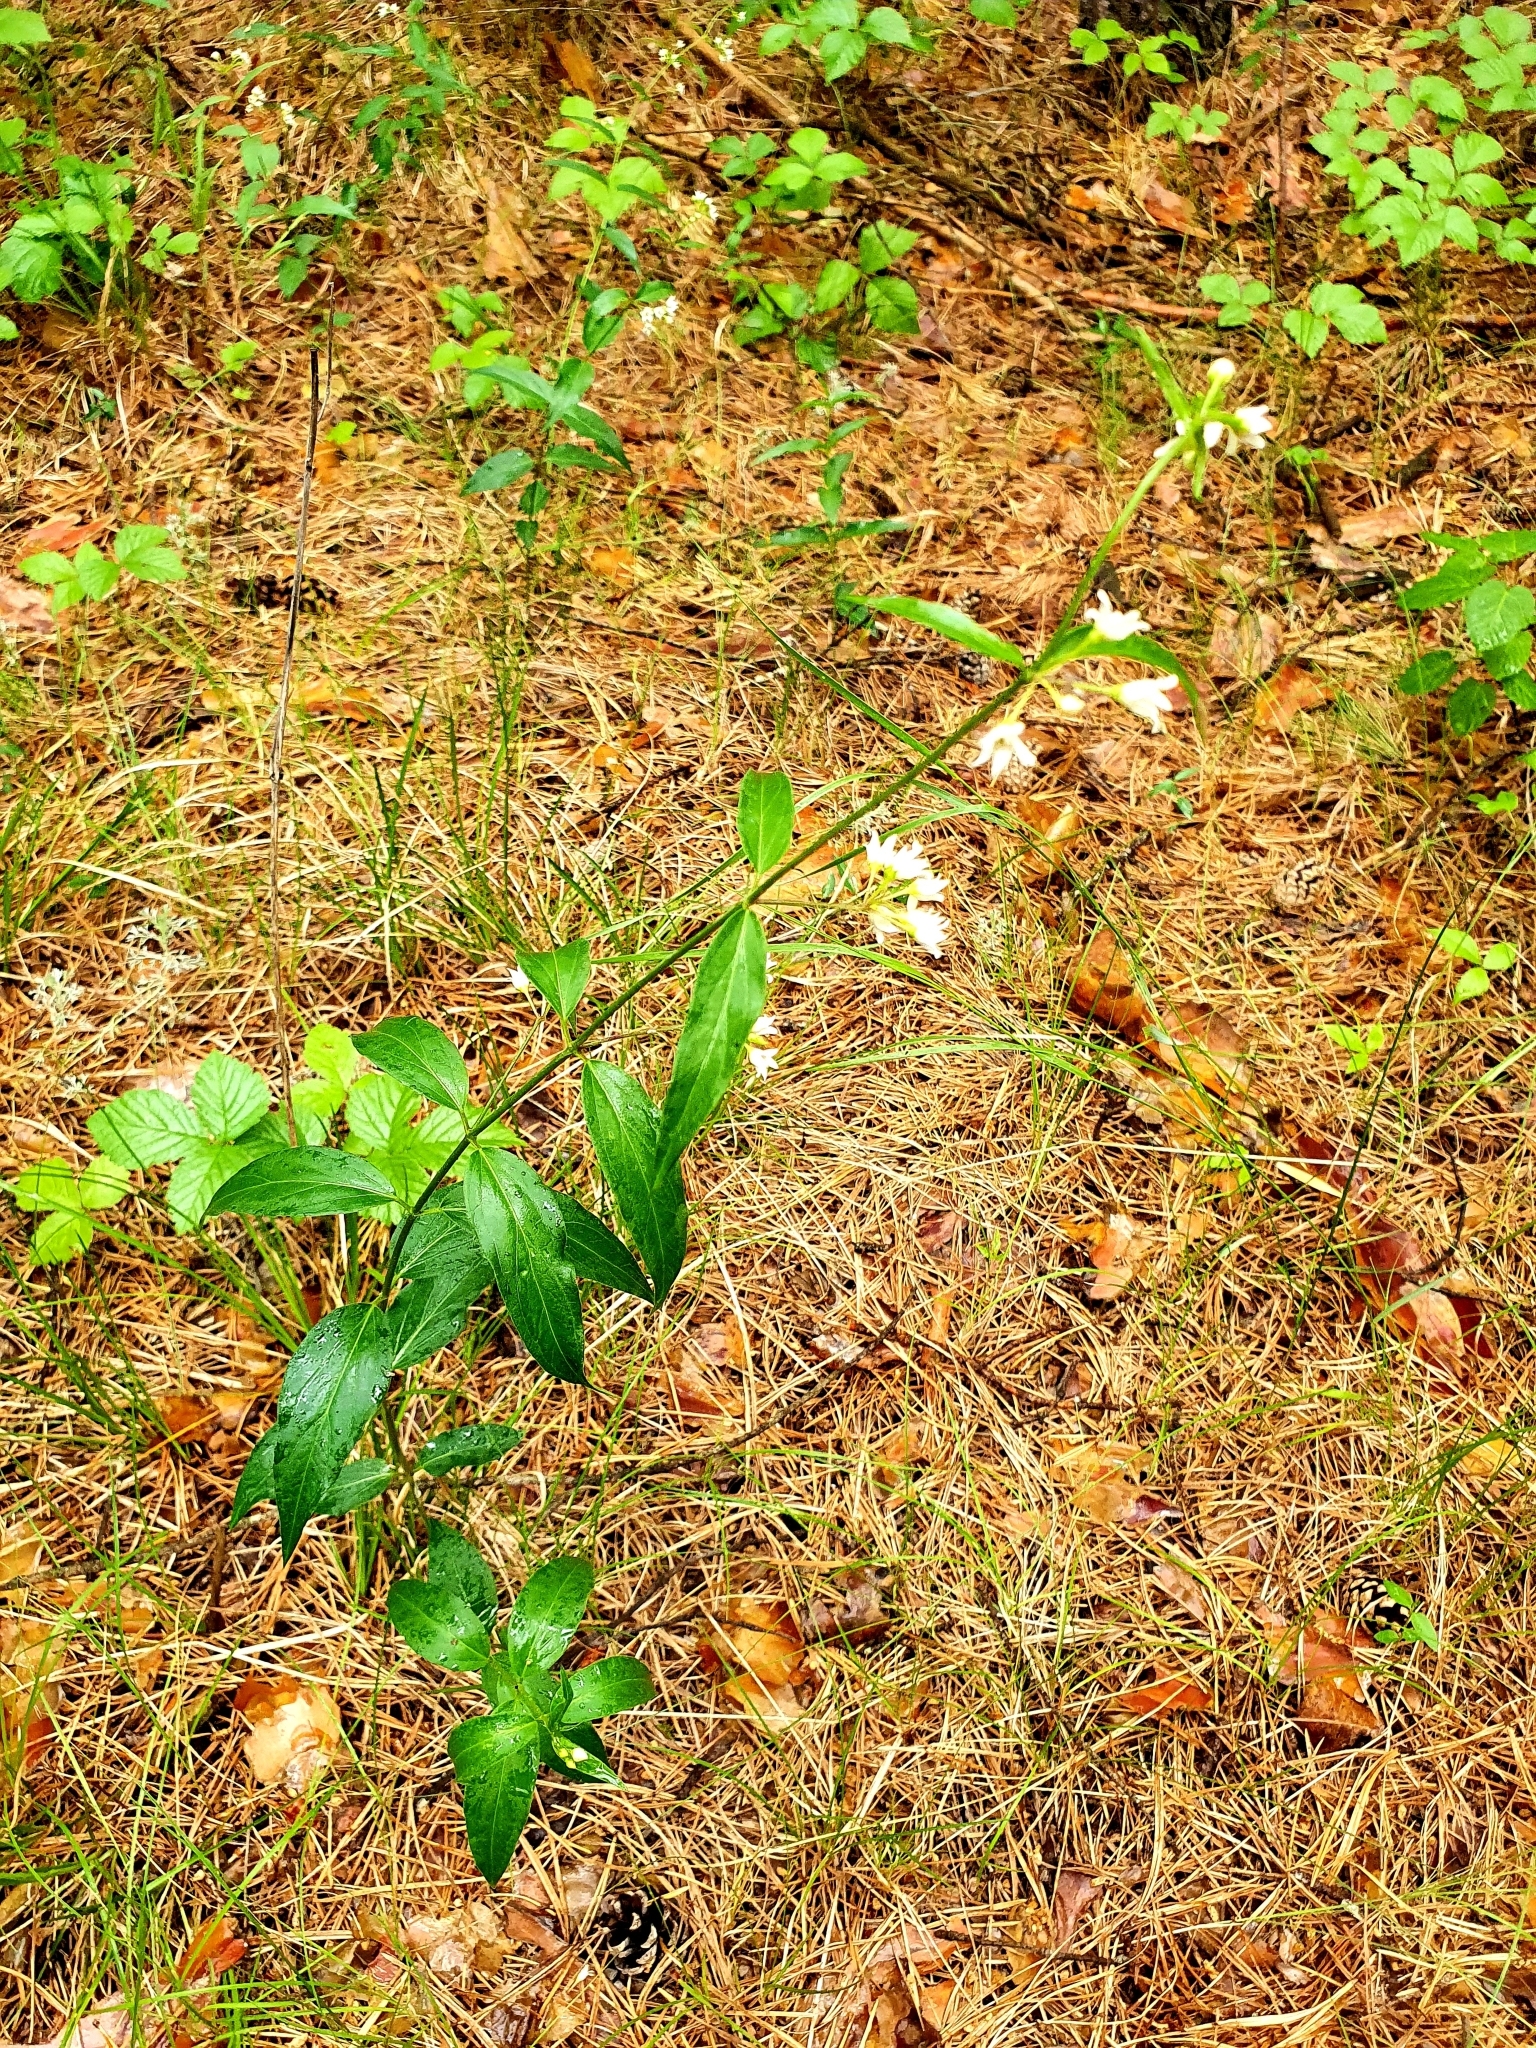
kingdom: Plantae
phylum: Tracheophyta
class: Magnoliopsida
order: Gentianales
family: Apocynaceae
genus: Vincetoxicum
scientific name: Vincetoxicum hirundinaria
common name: White swallowwort
